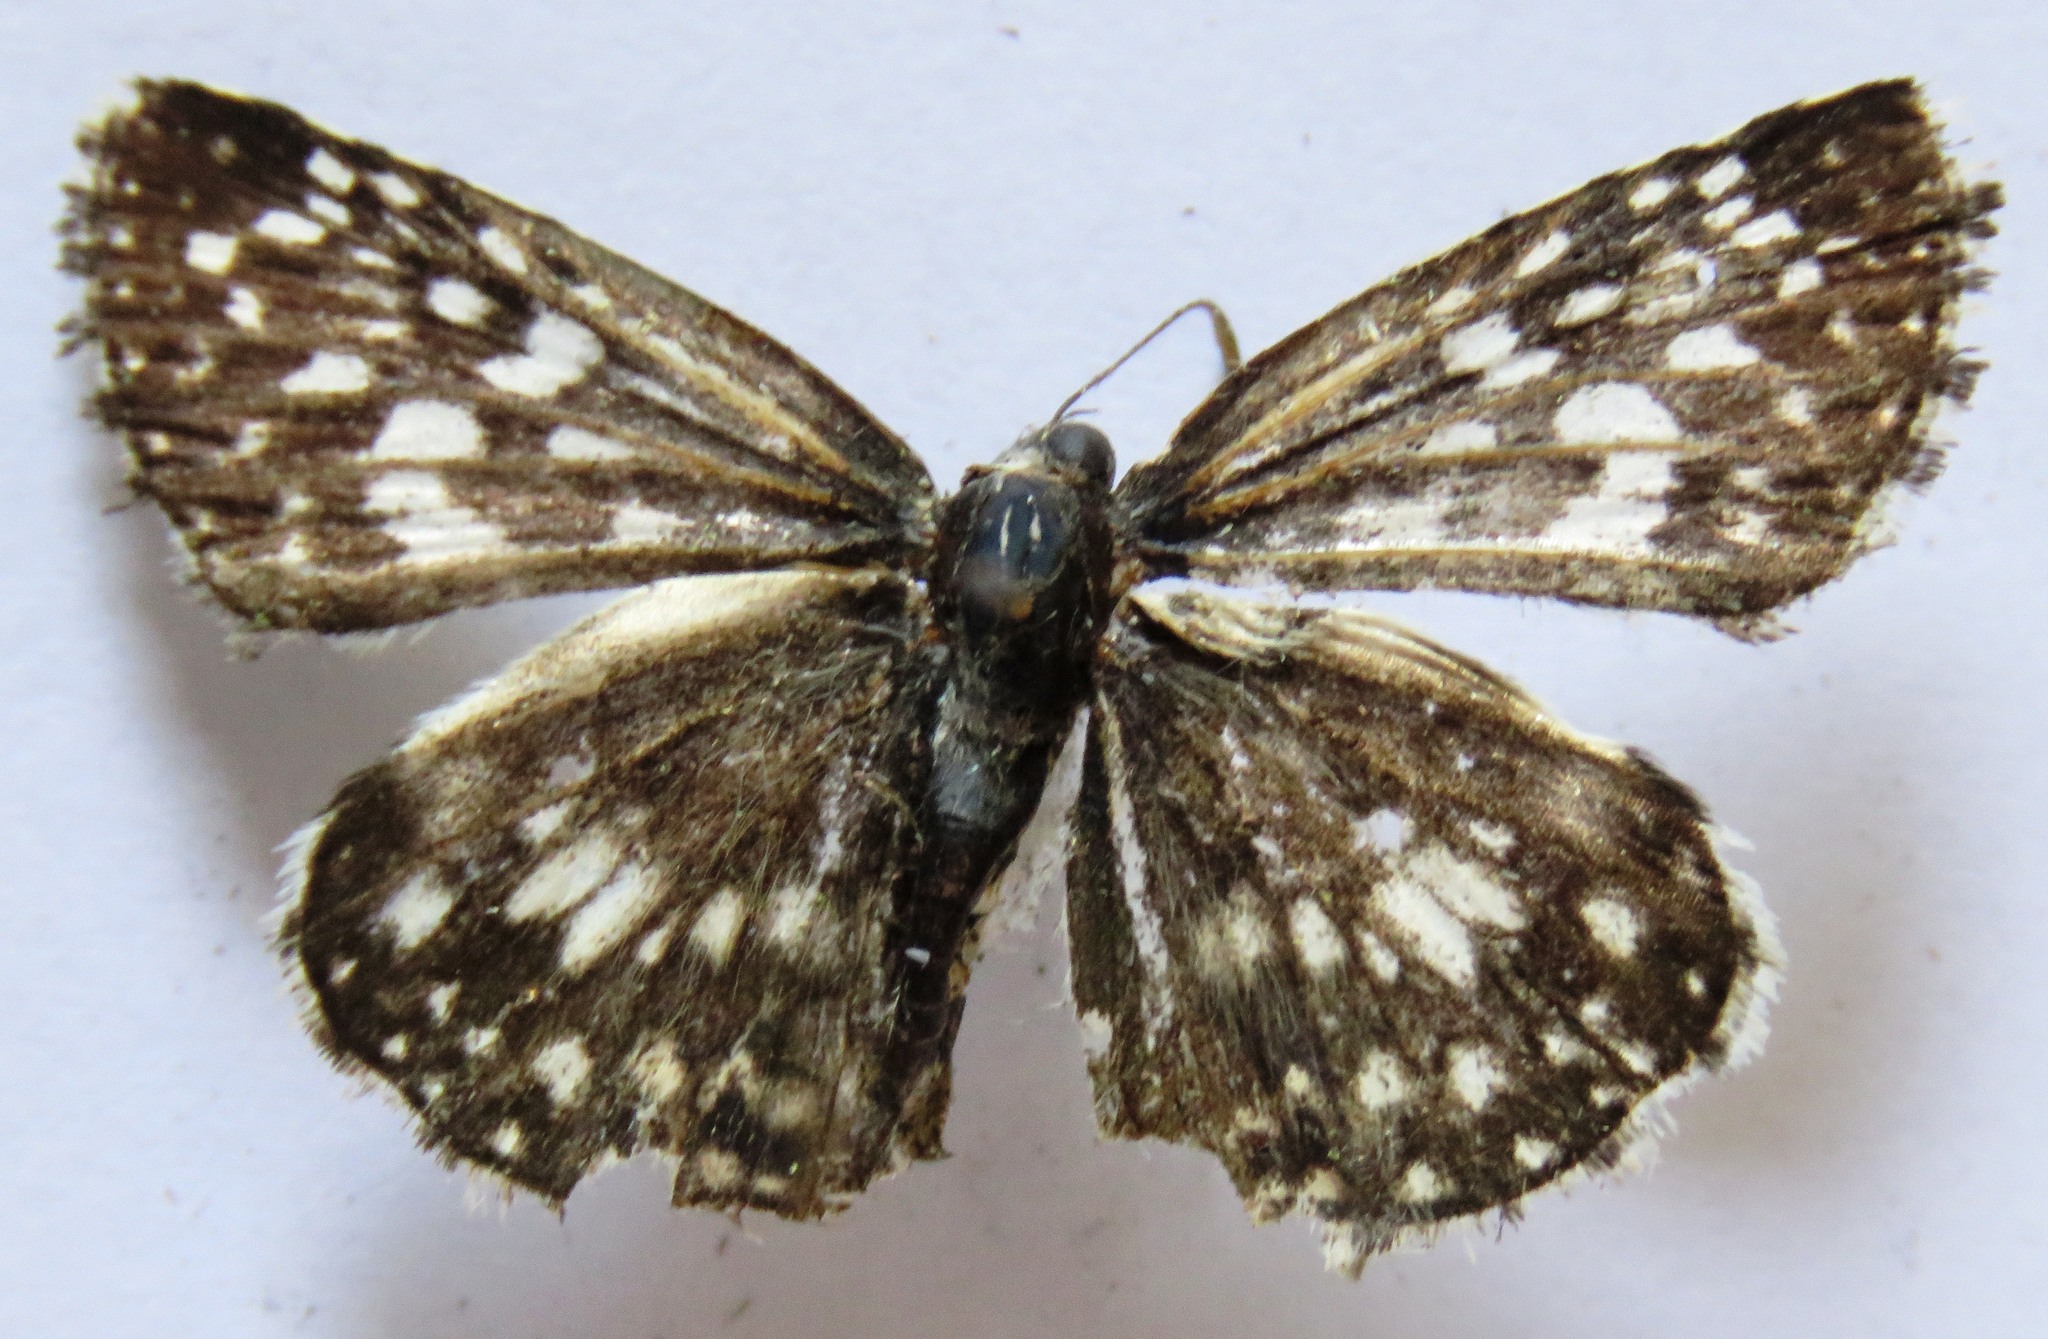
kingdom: Animalia
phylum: Arthropoda
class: Insecta
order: Lepidoptera
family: Hesperiidae
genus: Pyrgus
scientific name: Pyrgus oileus
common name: Tropical checkered-skipper
